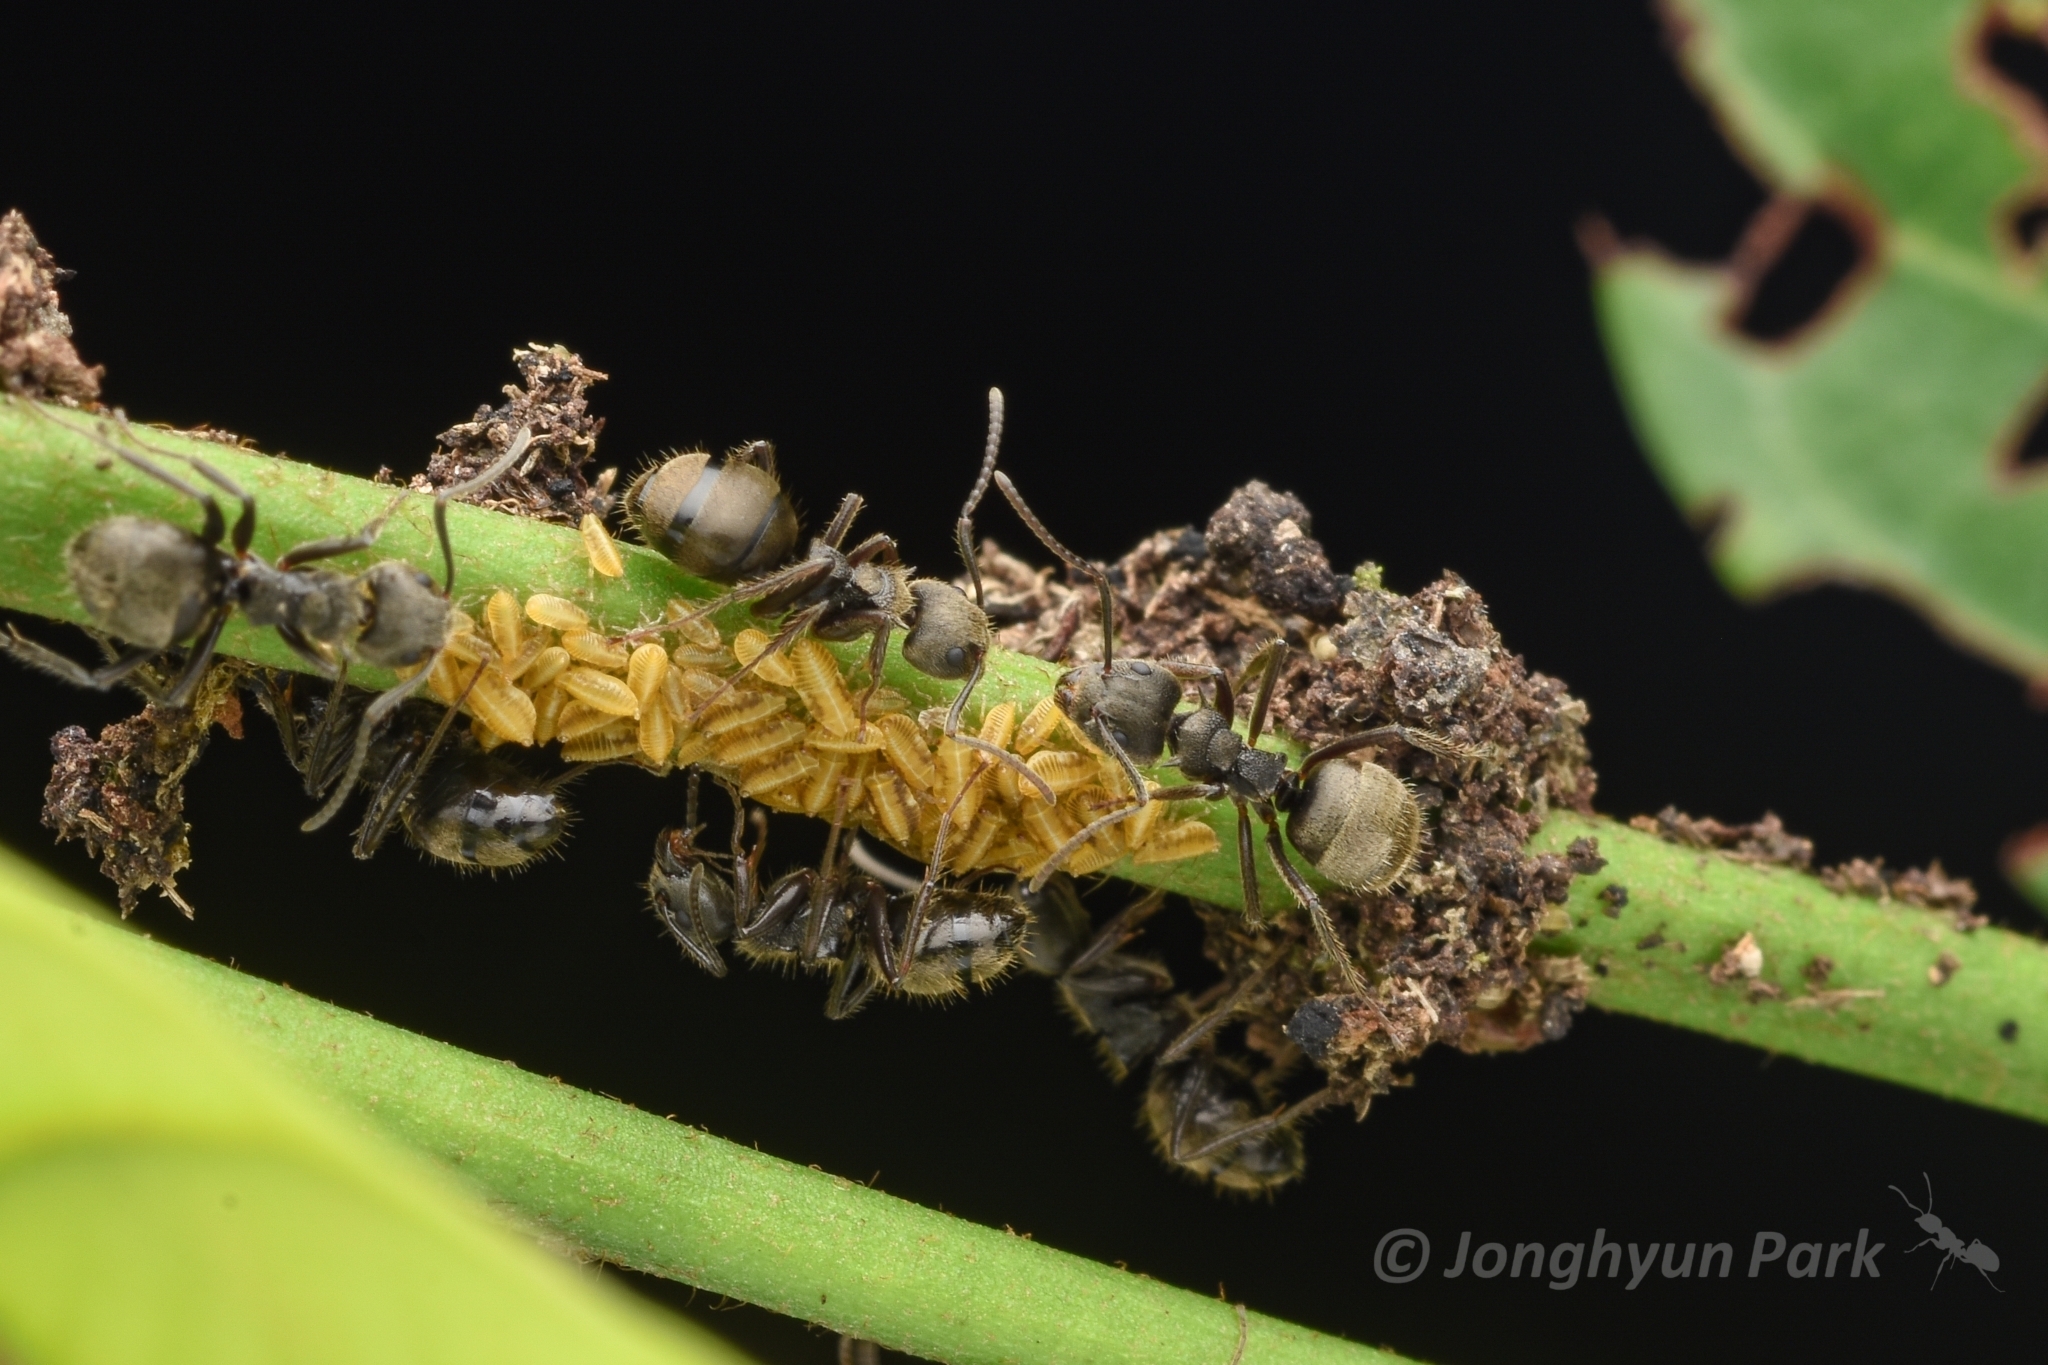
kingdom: Animalia
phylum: Arthropoda
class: Insecta
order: Hymenoptera
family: Formicidae
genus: Dolichoderus
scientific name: Dolichoderus bispinosus
